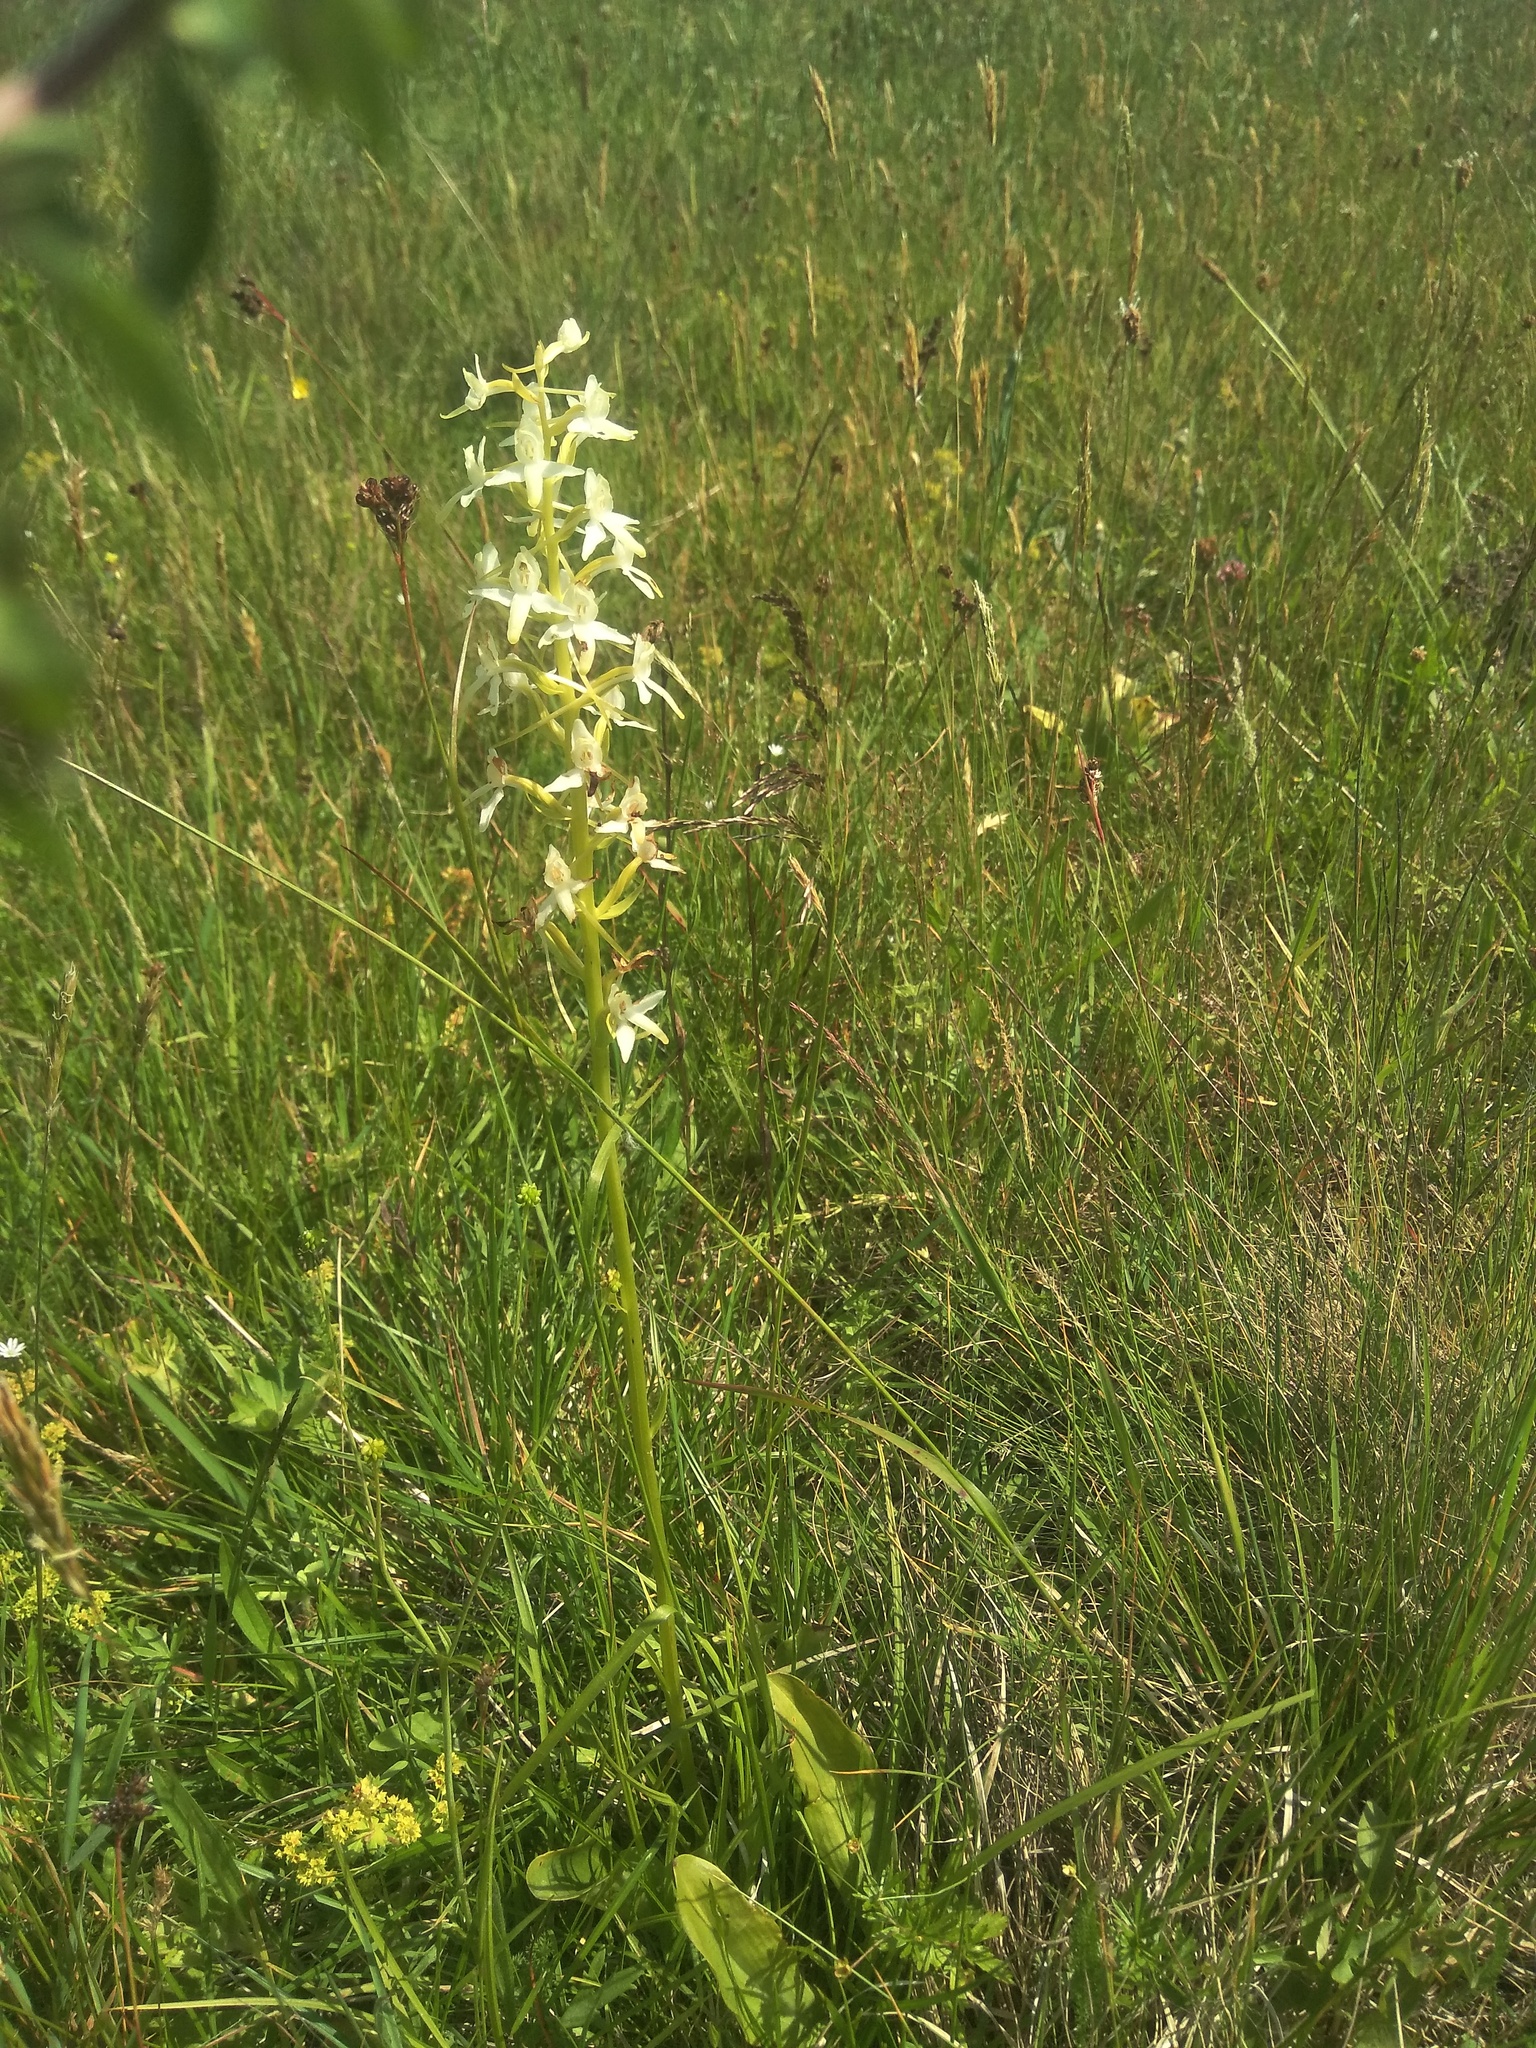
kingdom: Plantae
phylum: Tracheophyta
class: Liliopsida
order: Asparagales
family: Orchidaceae
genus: Platanthera
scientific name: Platanthera bifolia
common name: Lesser butterfly-orchid
